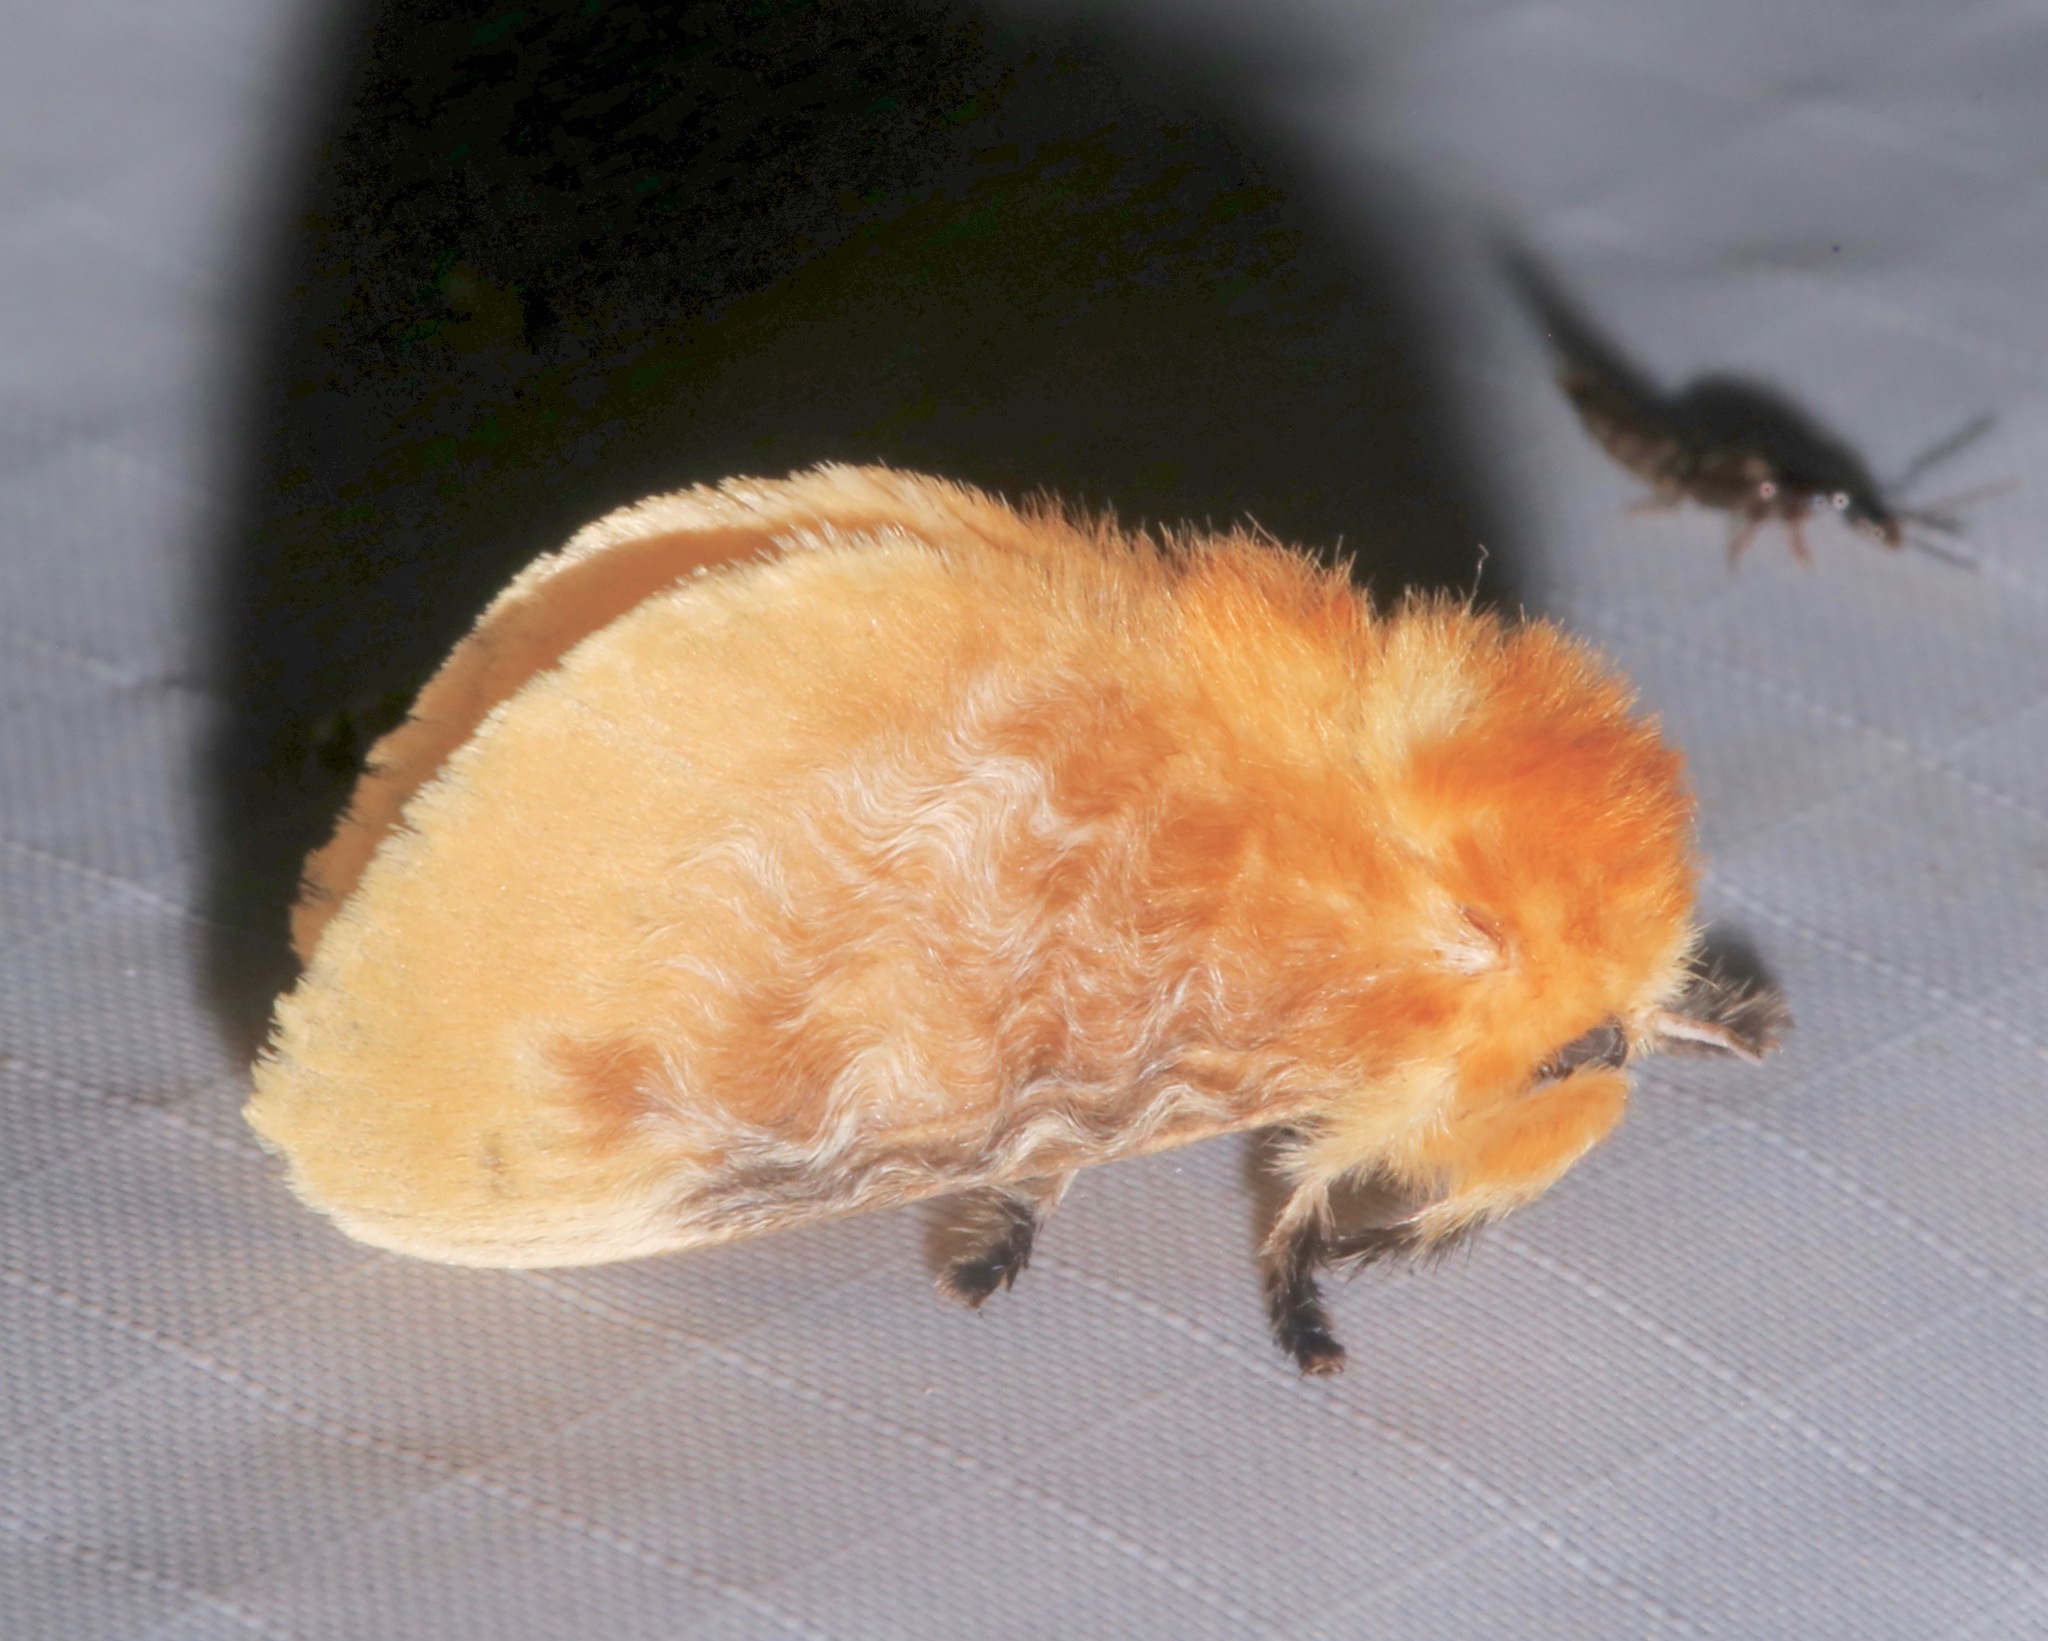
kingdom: Animalia
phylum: Arthropoda
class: Insecta
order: Lepidoptera
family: Megalopygidae
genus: Megalopyge
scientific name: Megalopyge opercularis
